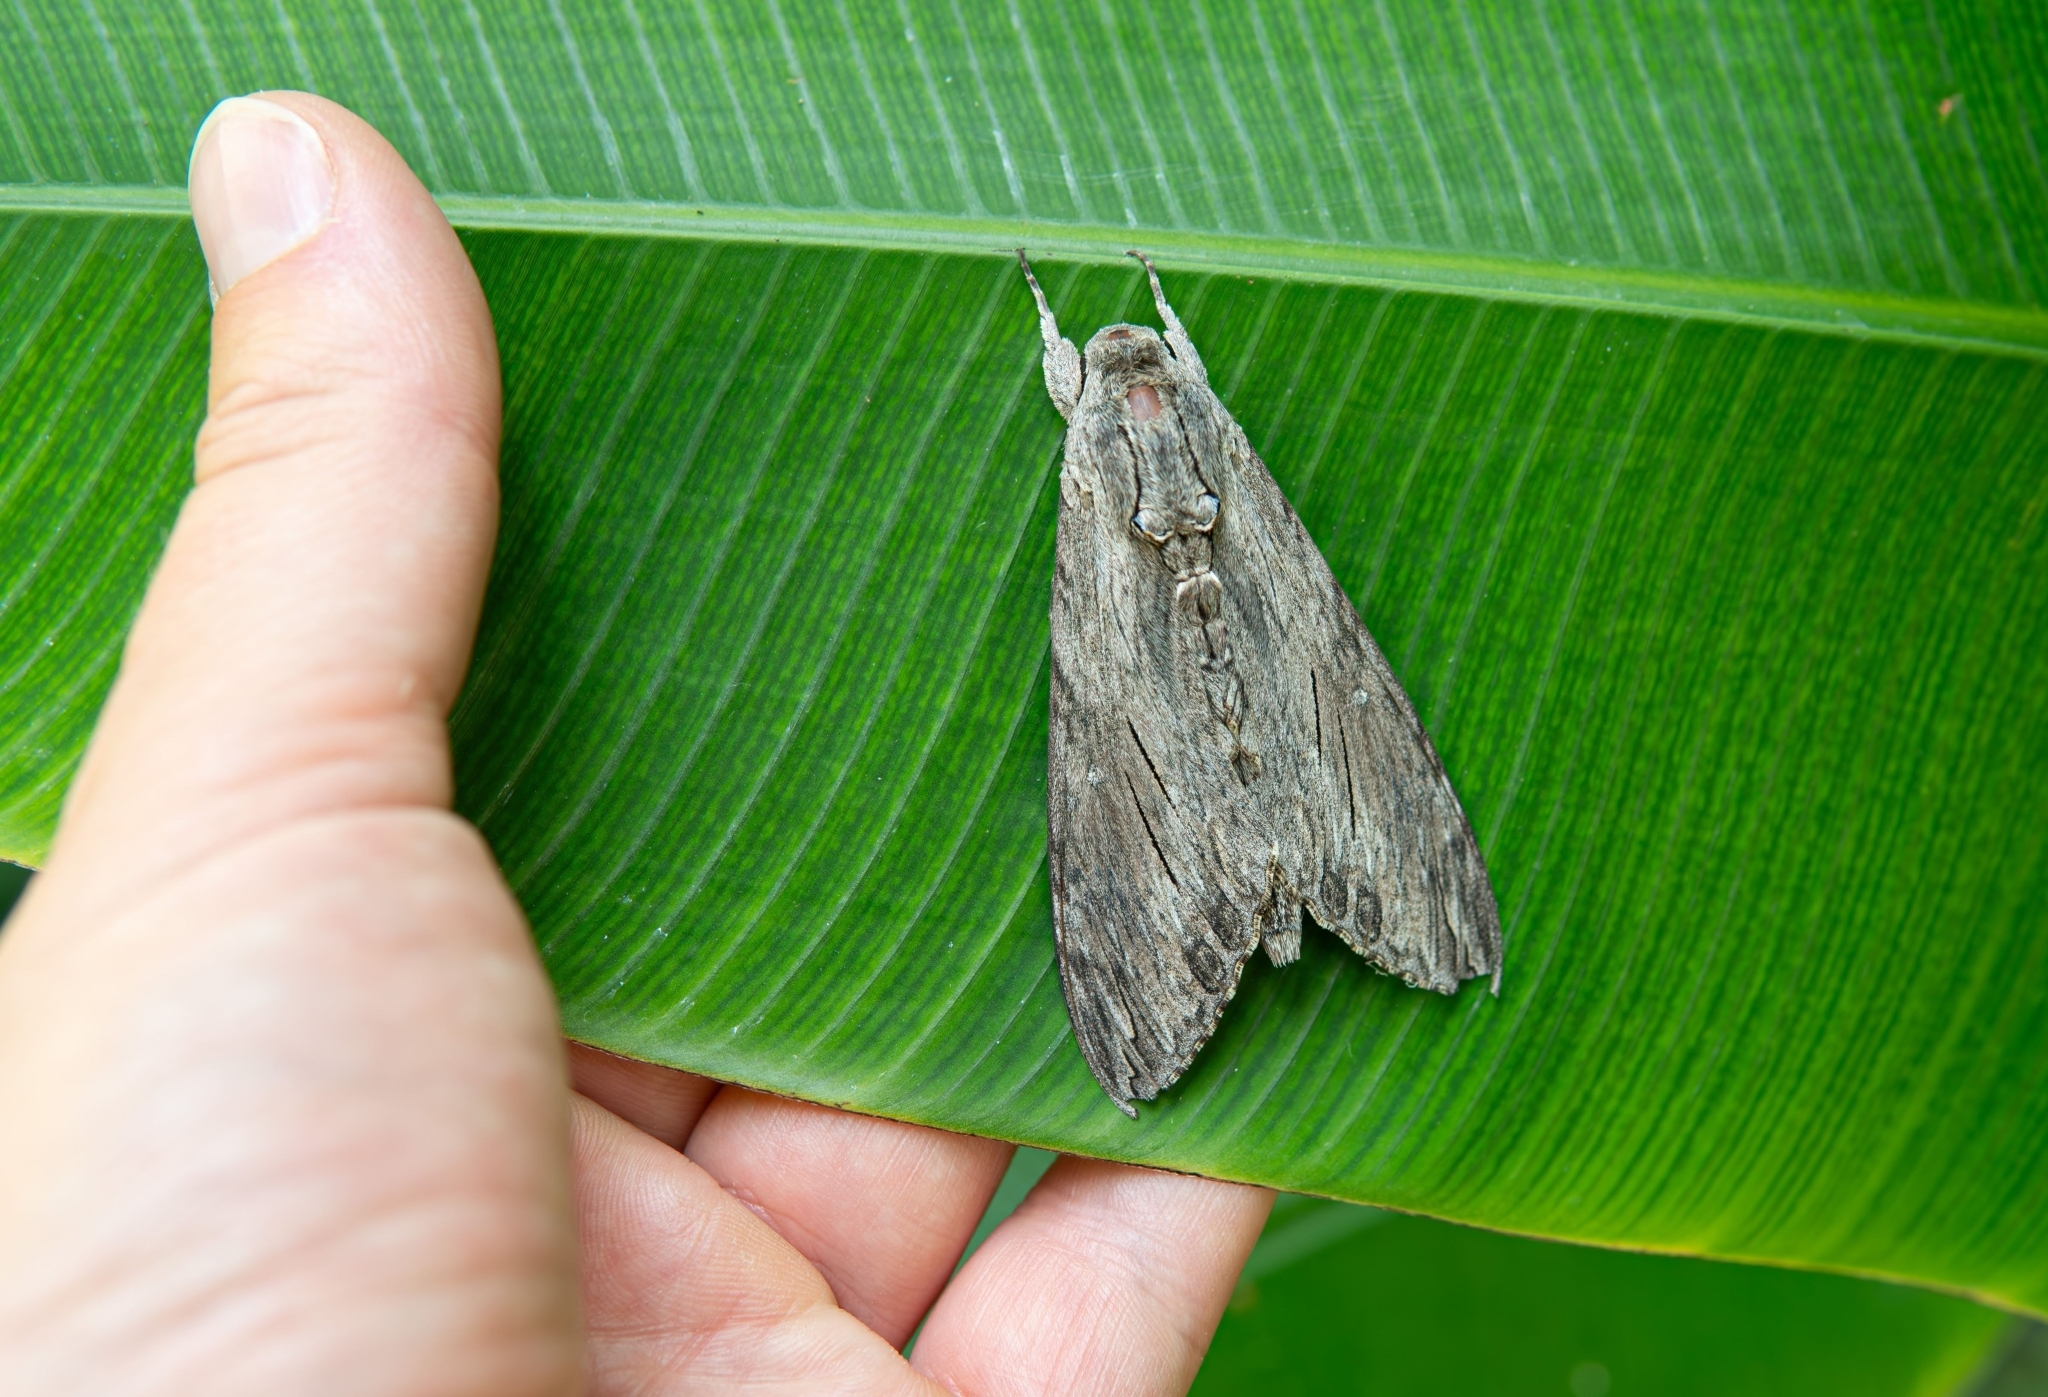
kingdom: Animalia
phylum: Arthropoda
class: Insecta
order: Lepidoptera
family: Sphingidae
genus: Agrius
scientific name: Agrius convolvuli
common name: Convolvulus hawkmoth
